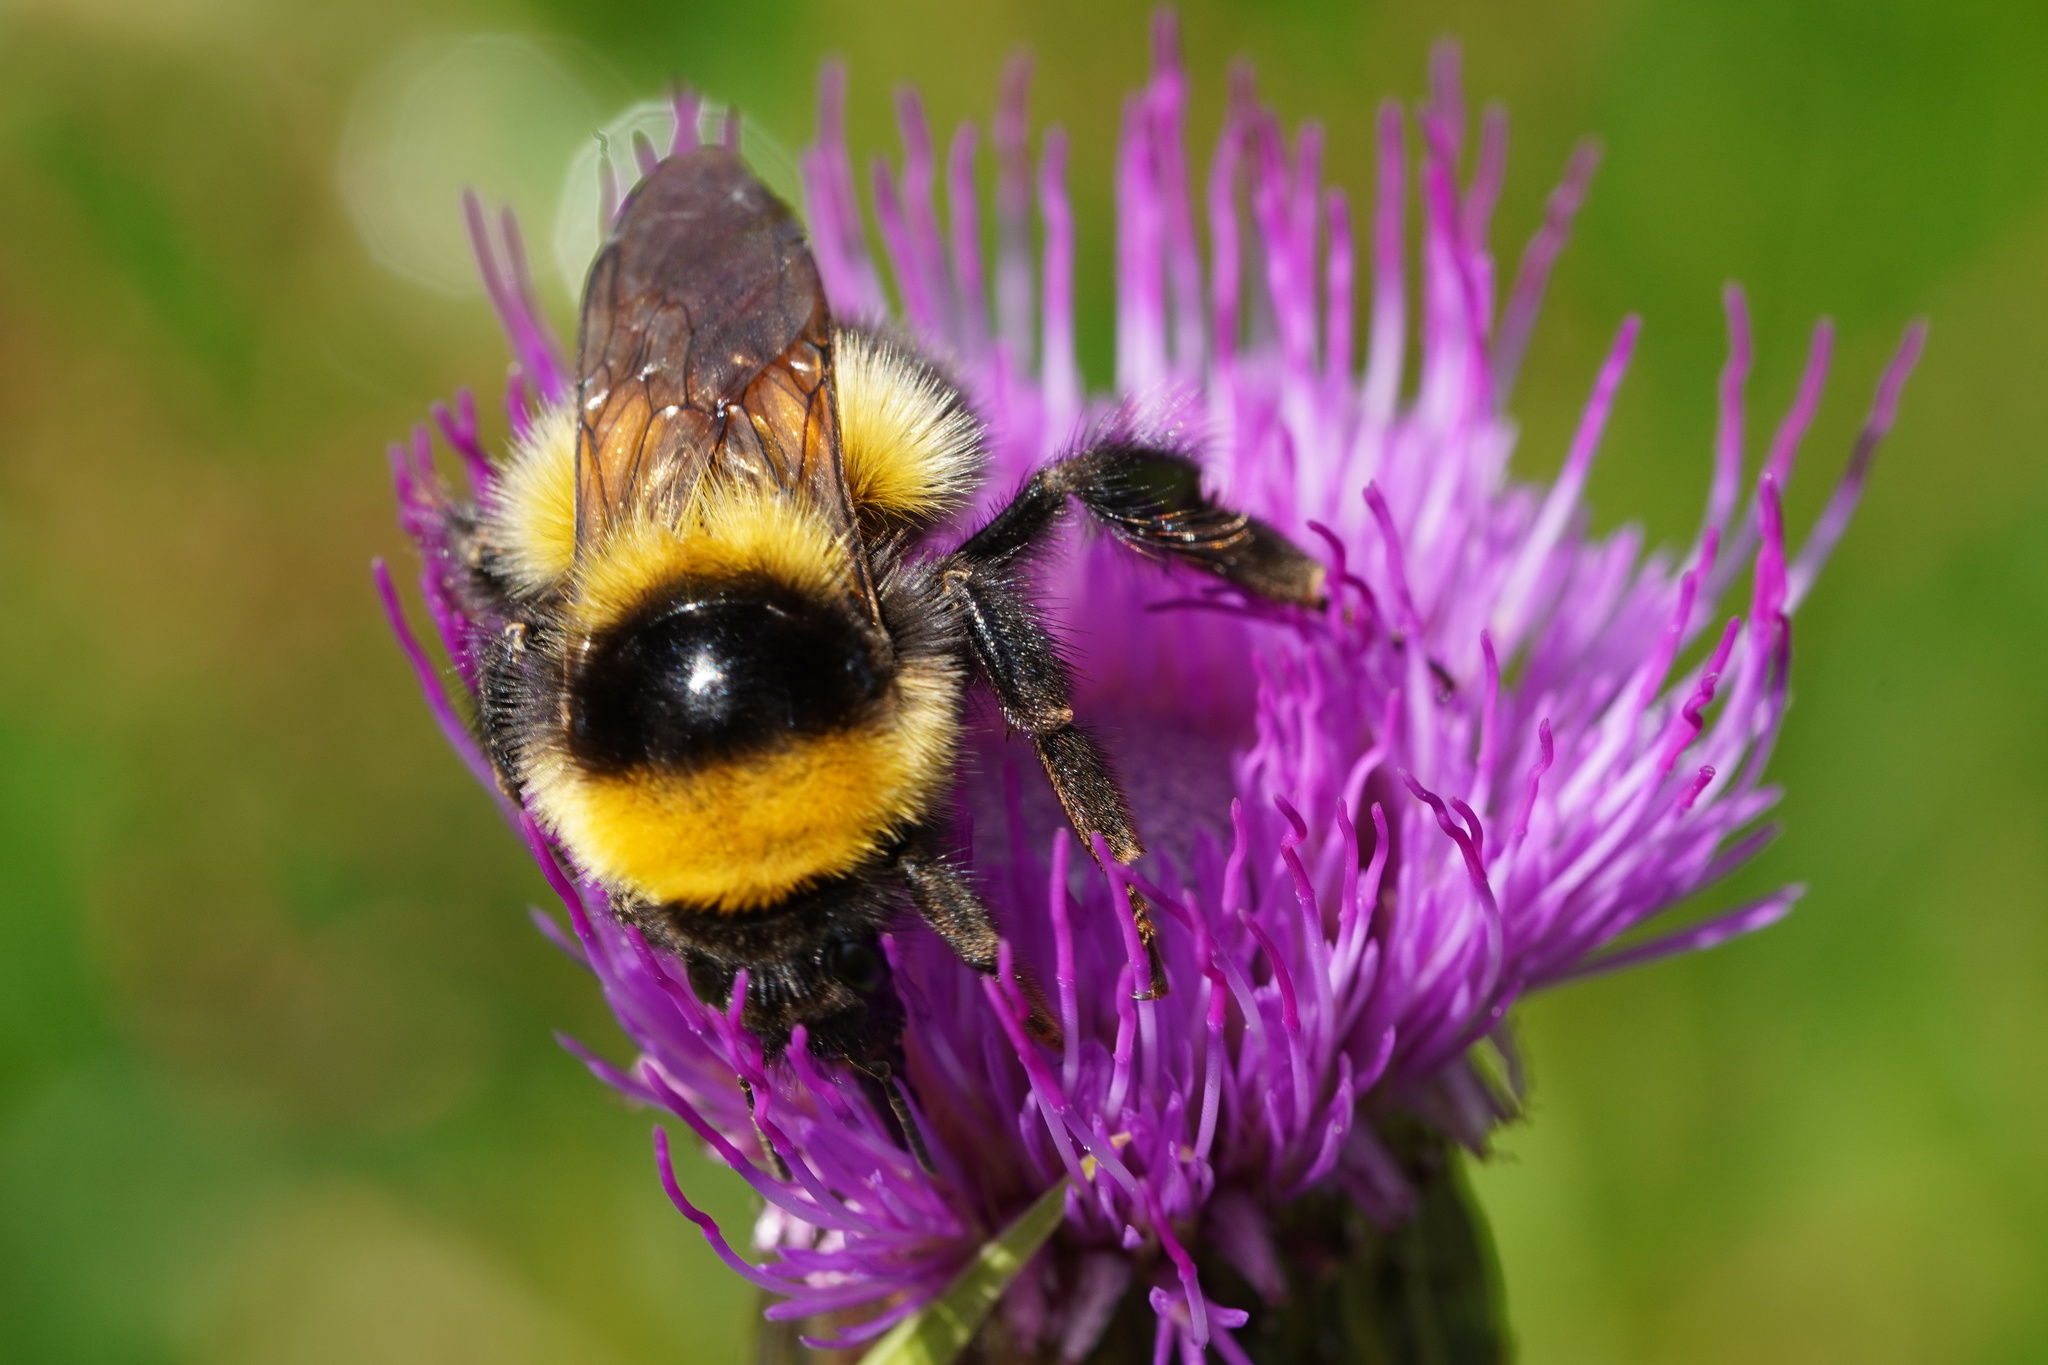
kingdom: Animalia
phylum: Arthropoda
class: Insecta
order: Hymenoptera
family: Apidae
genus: Bombus
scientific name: Bombus hortorum
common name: Garden bumblebee
